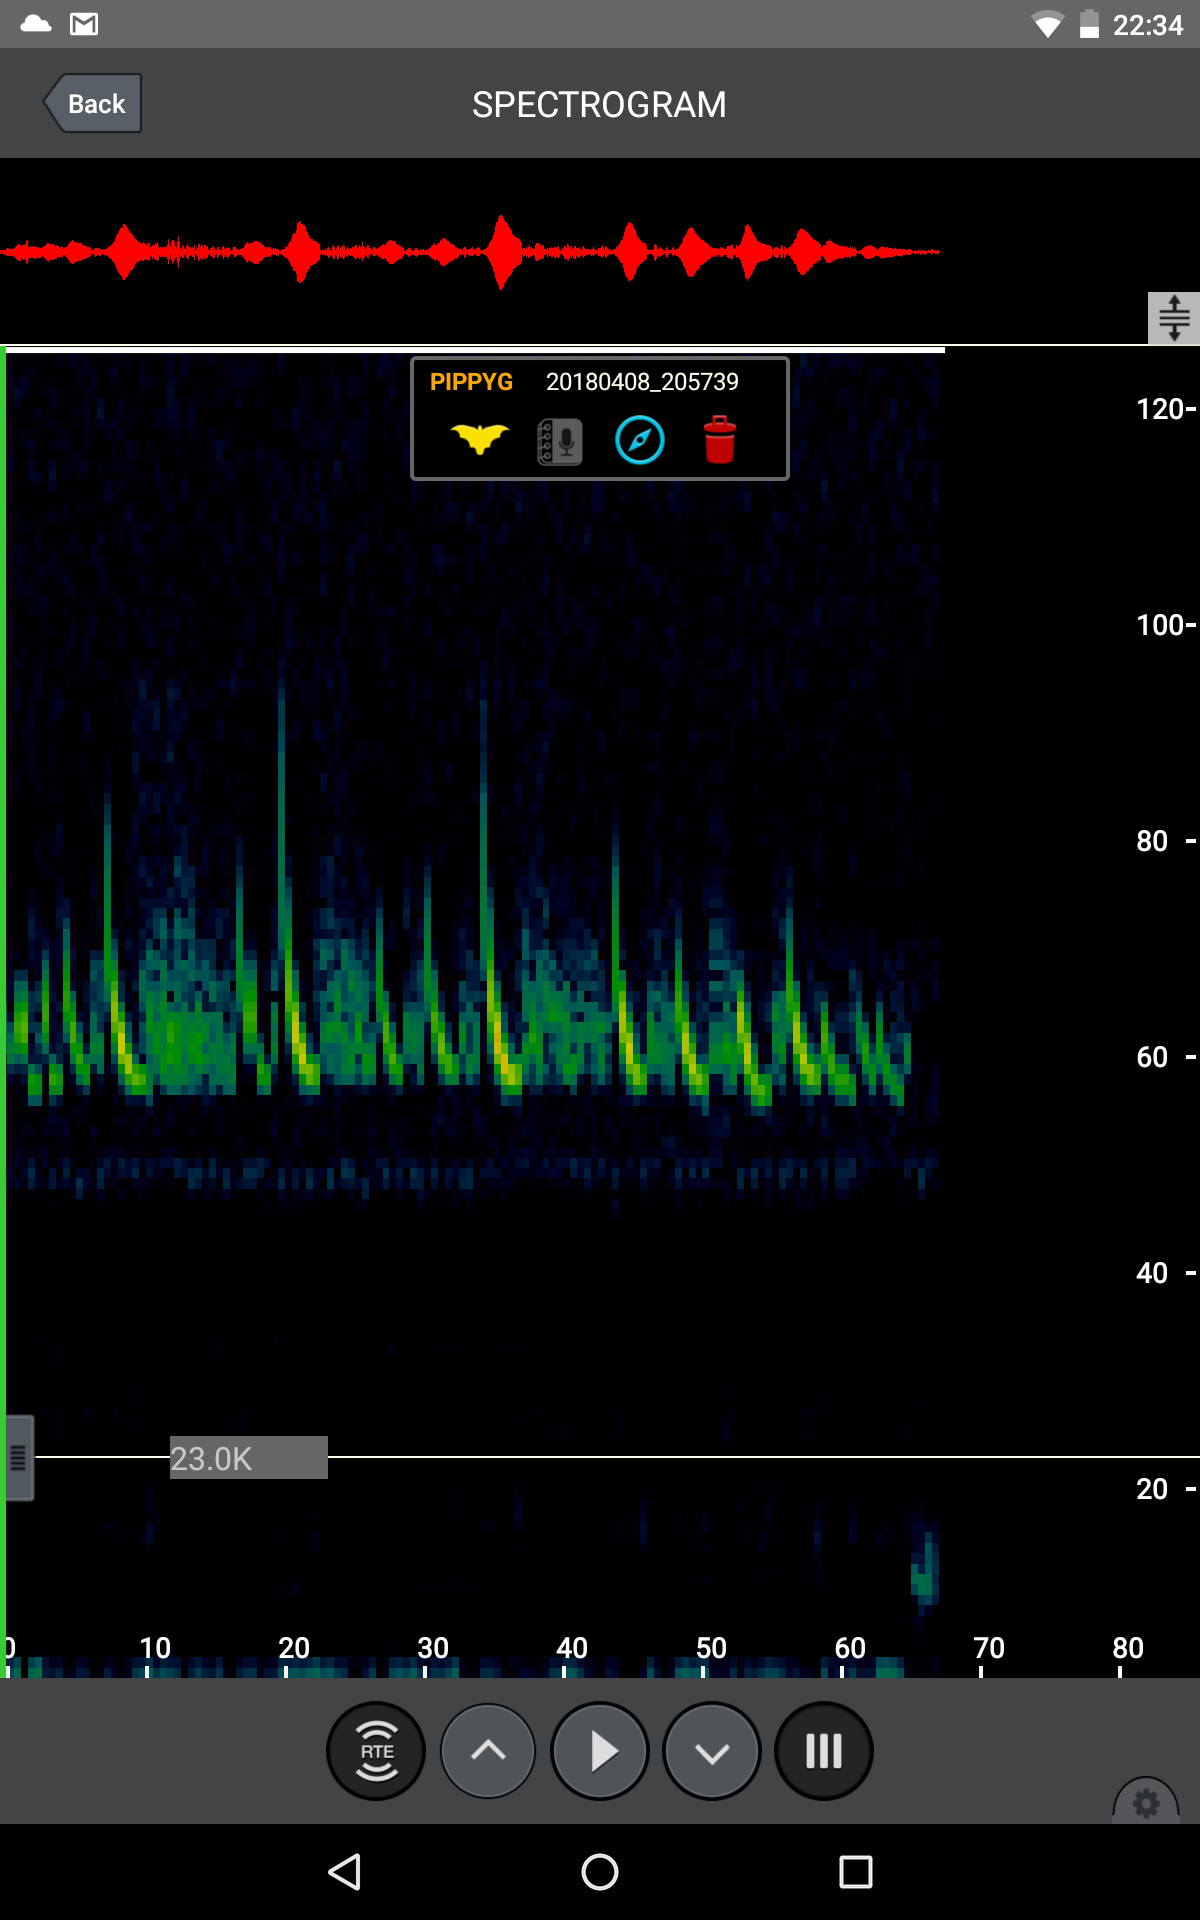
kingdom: Animalia
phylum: Chordata
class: Mammalia
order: Chiroptera
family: Vespertilionidae
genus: Pipistrellus
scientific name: Pipistrellus pygmaeus
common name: Soprano pipistrelle
